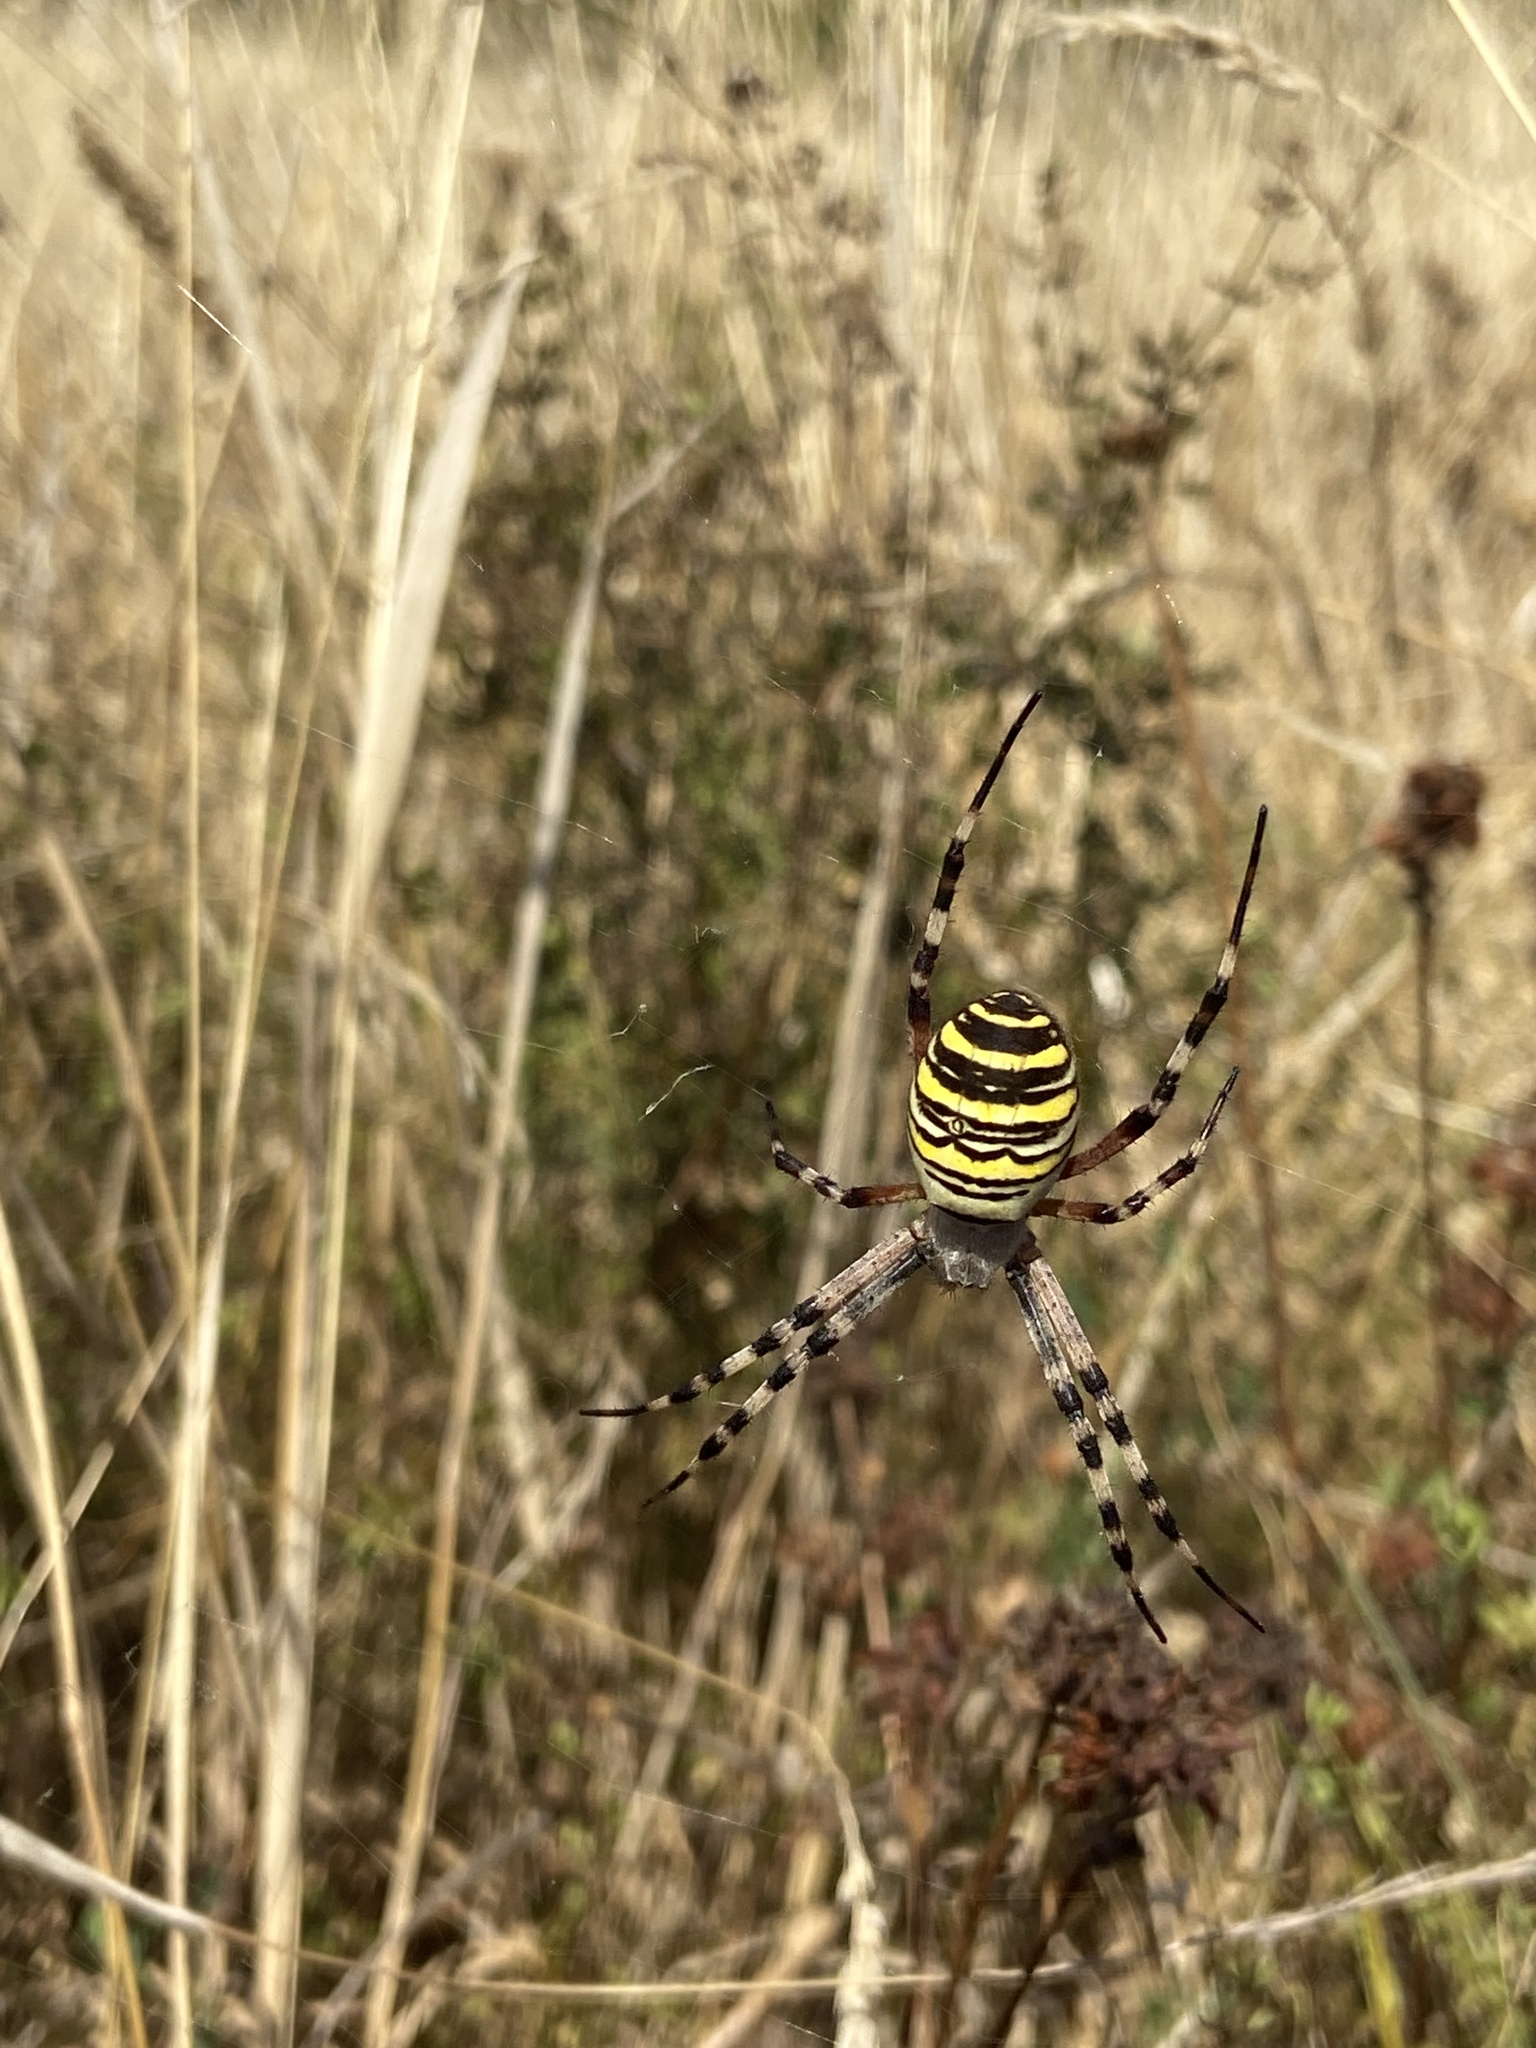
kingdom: Animalia
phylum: Arthropoda
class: Arachnida
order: Araneae
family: Araneidae
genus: Argiope
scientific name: Argiope bruennichi
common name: Wasp spider
